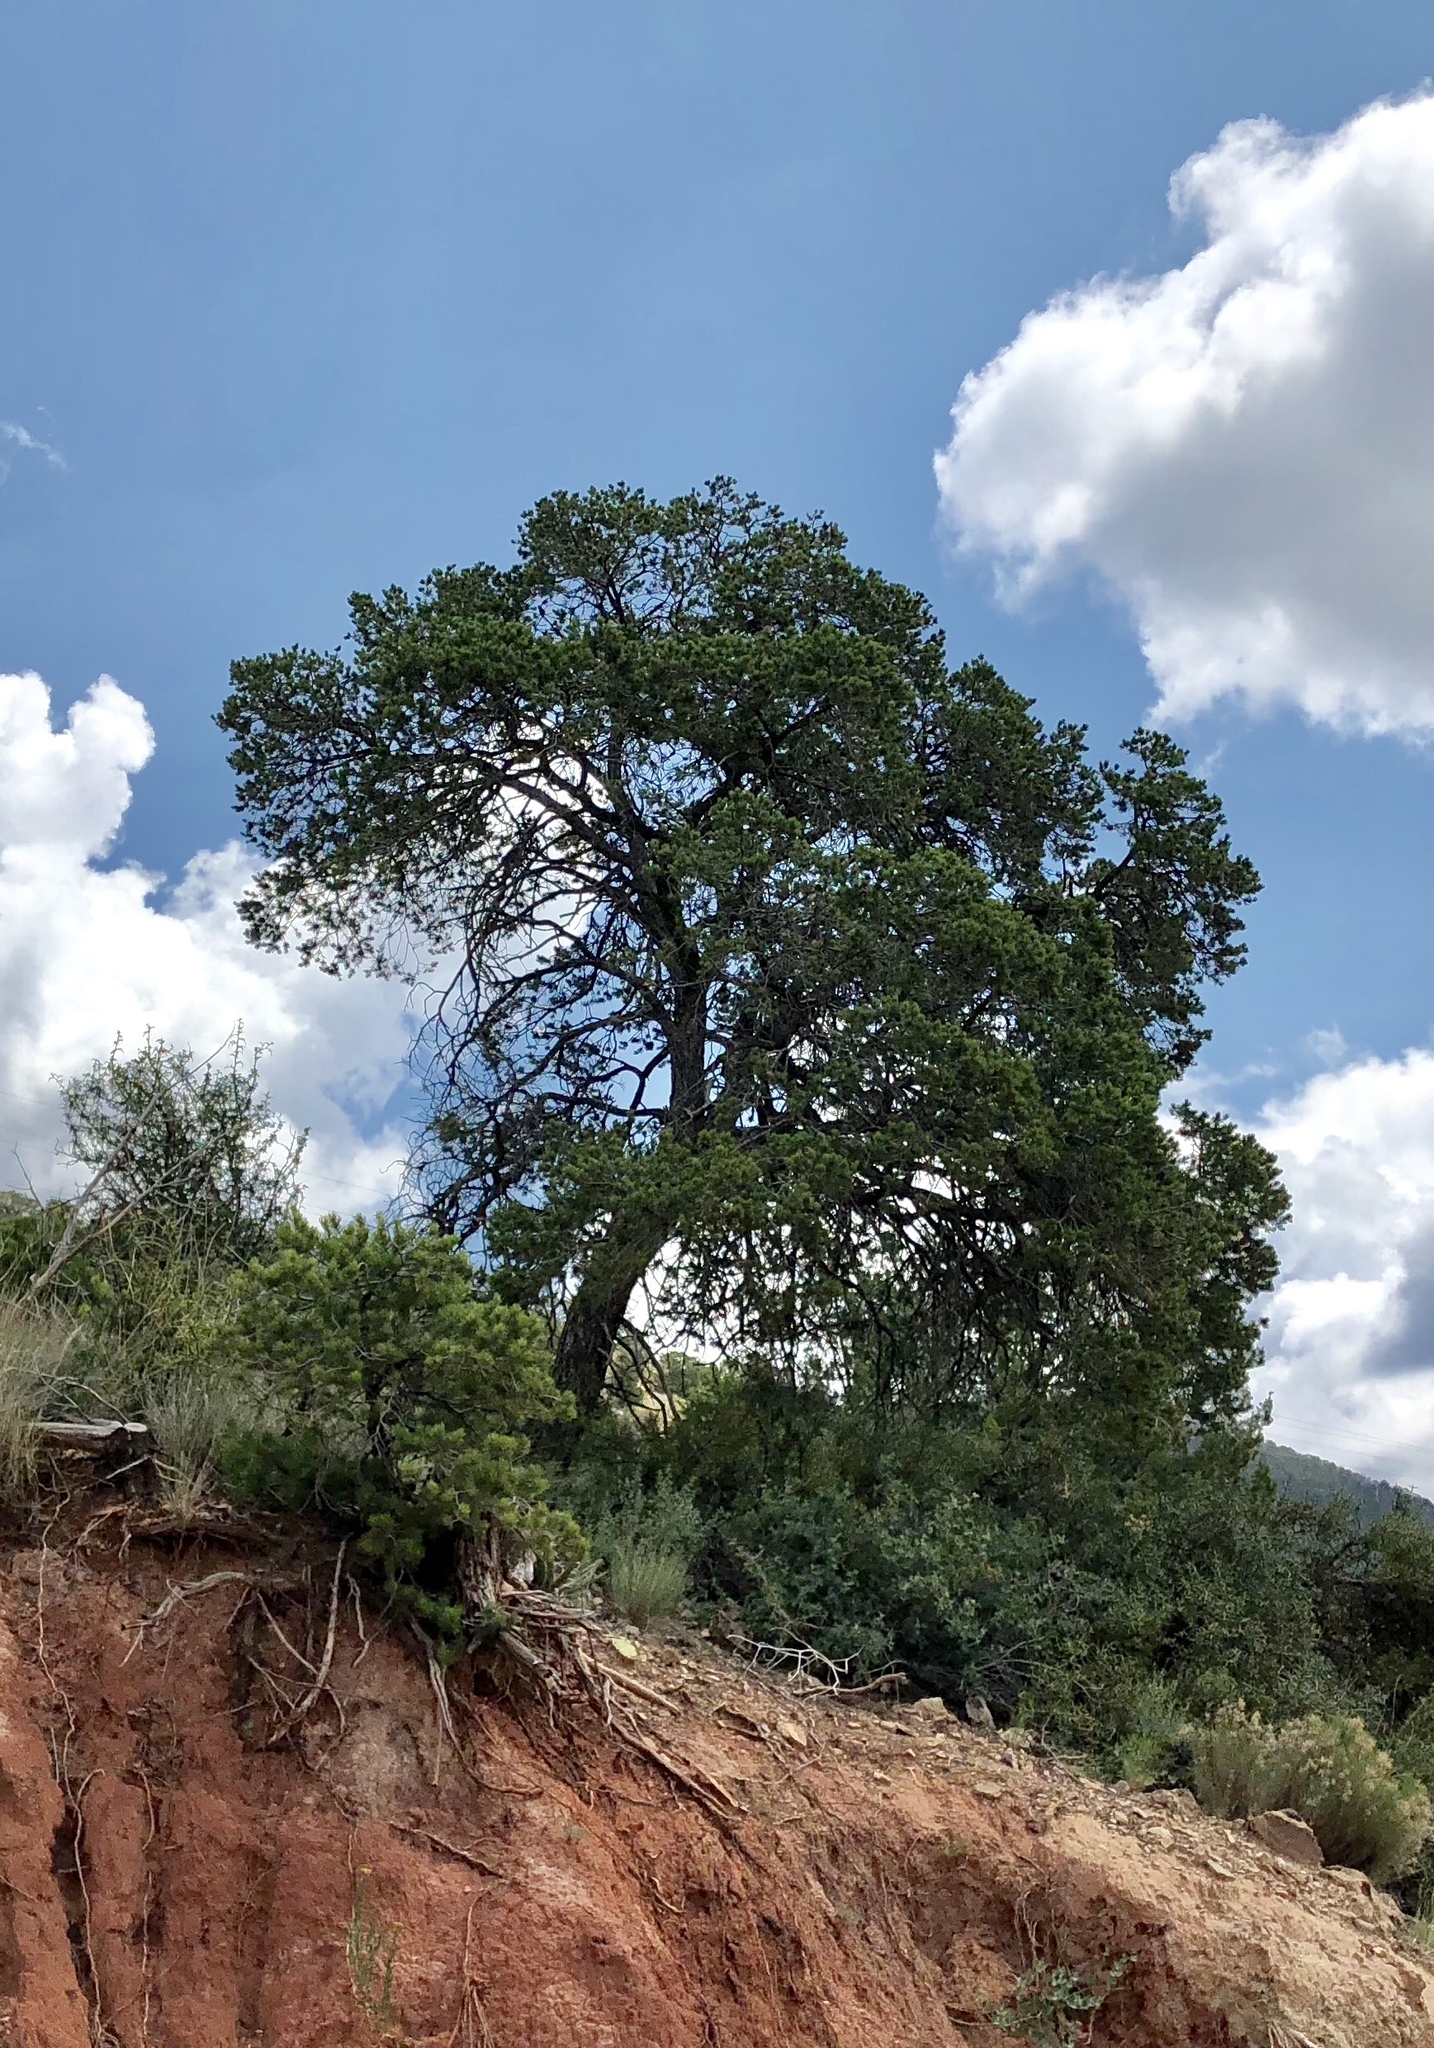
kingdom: Plantae
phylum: Tracheophyta
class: Pinopsida
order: Pinales
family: Pinaceae
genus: Pinus
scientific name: Pinus edulis
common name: Colorado pinyon
